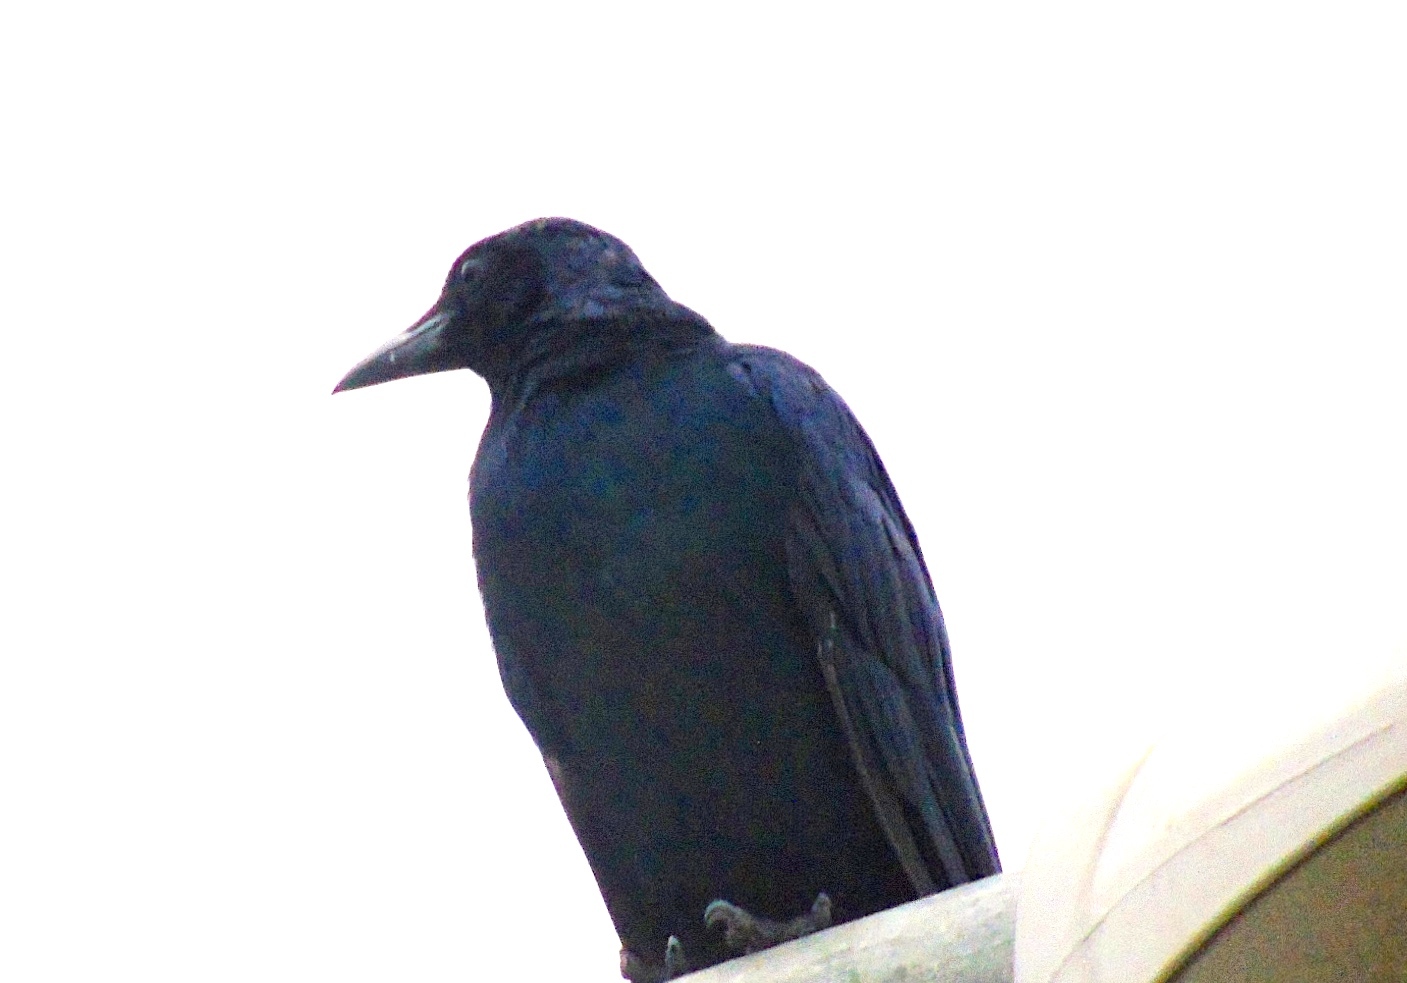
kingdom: Animalia
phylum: Chordata
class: Aves
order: Passeriformes
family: Corvidae
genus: Corvus
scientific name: Corvus sinaloae
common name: Sinaloa crow
